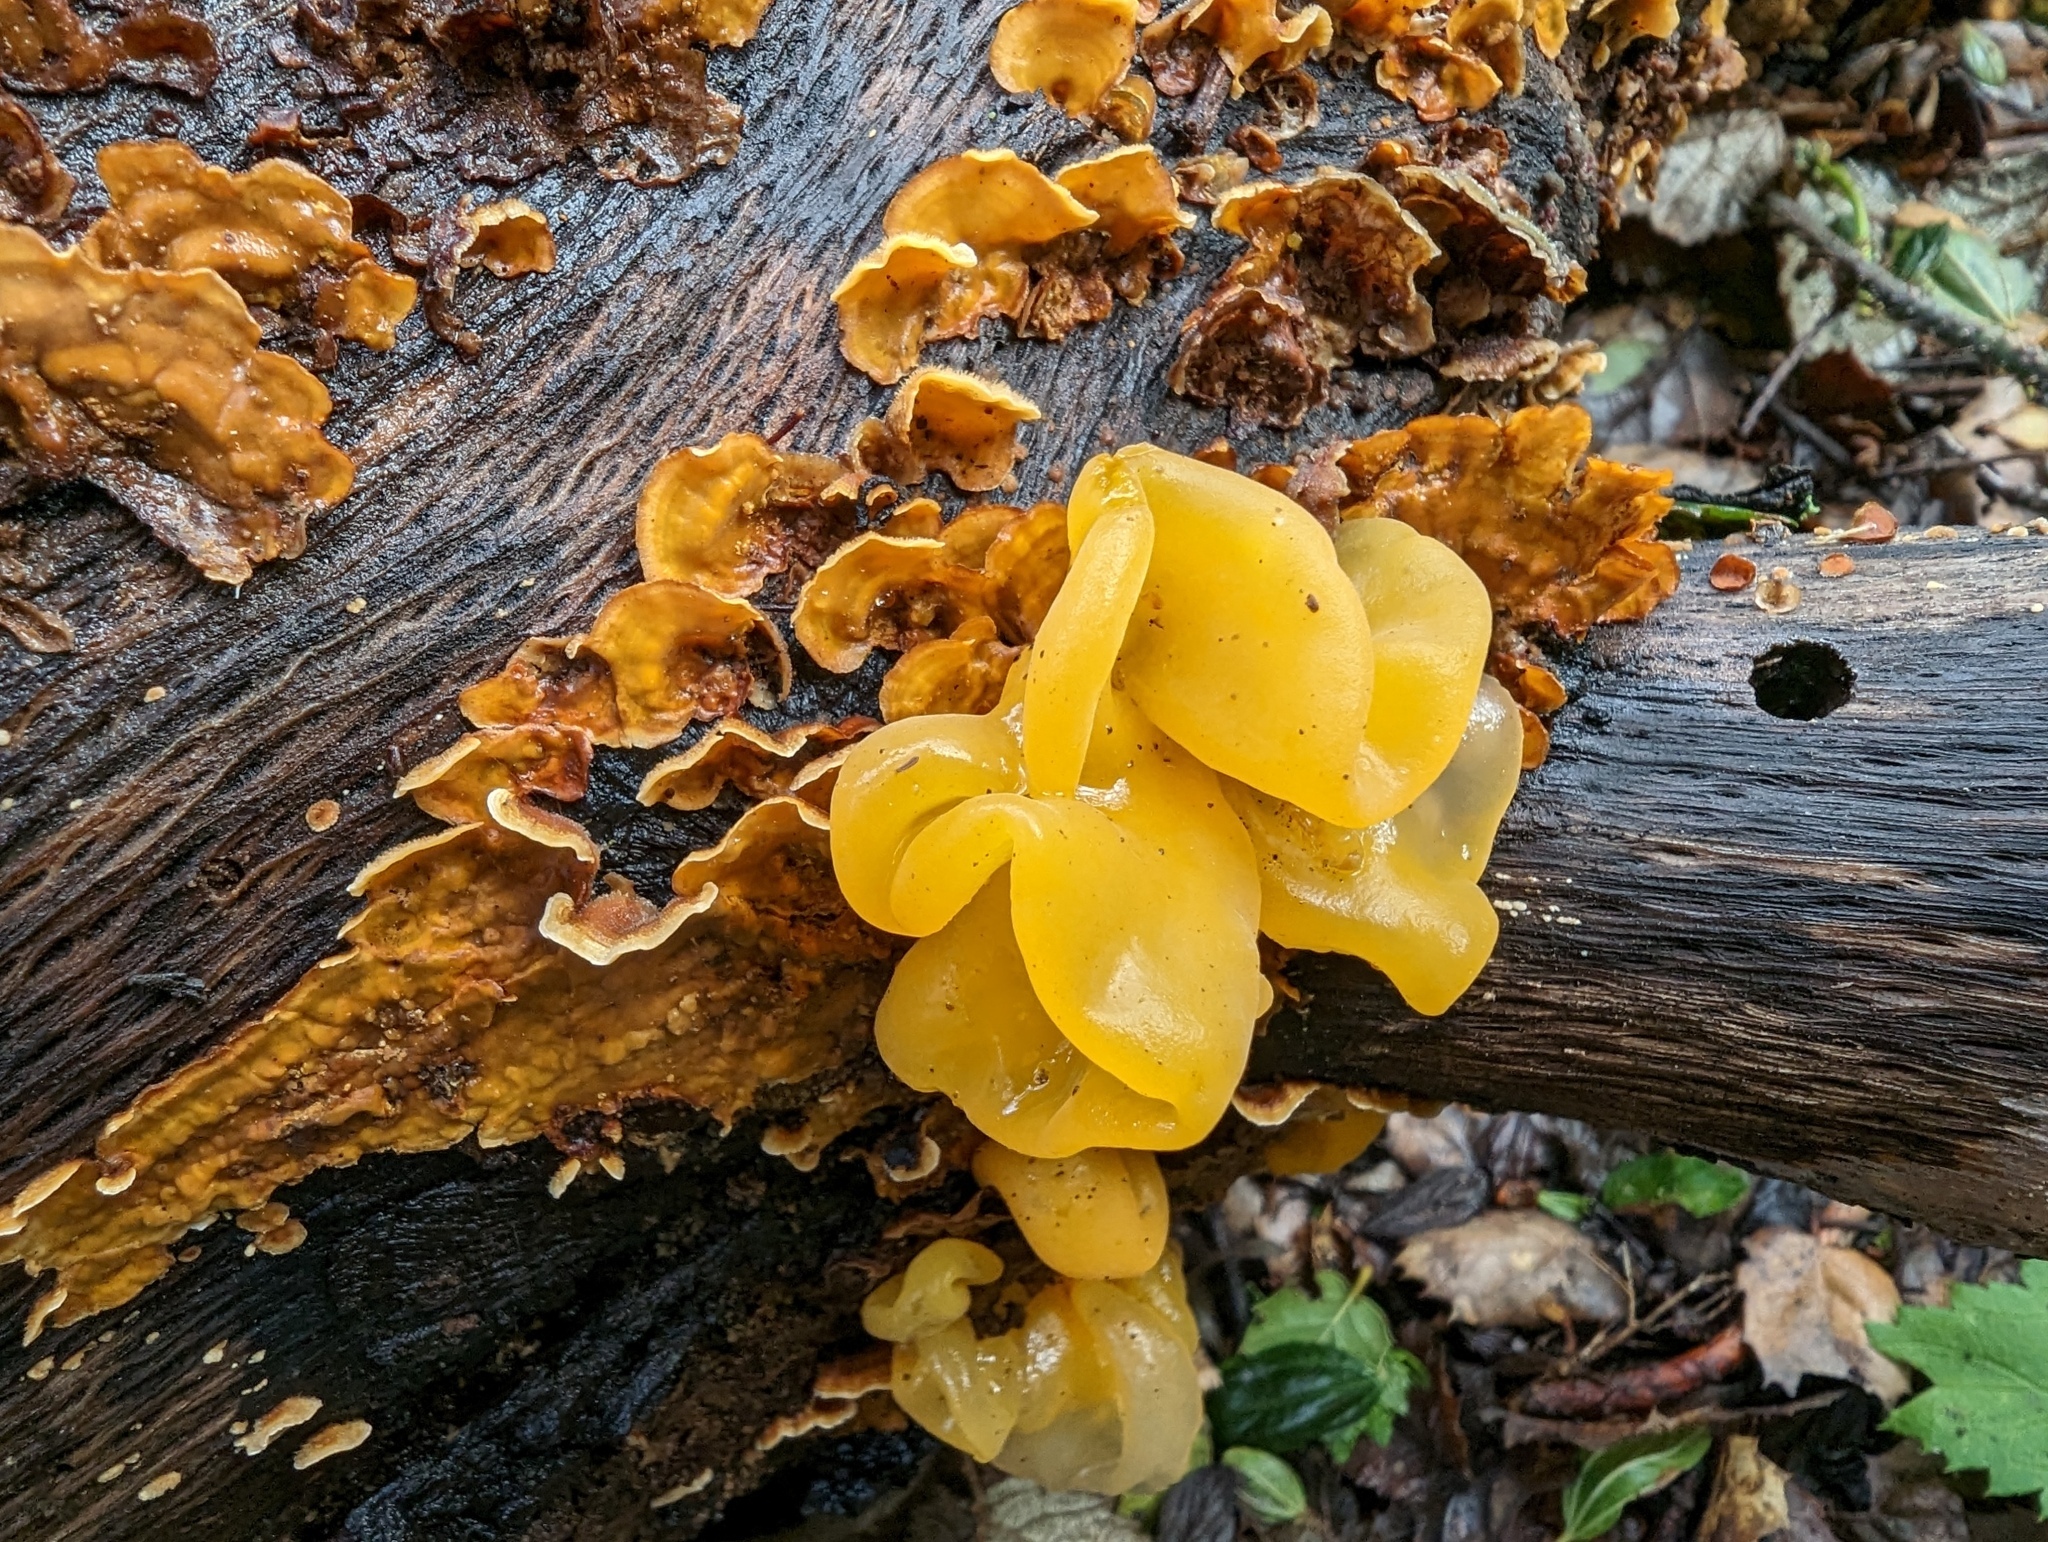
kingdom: Fungi
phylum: Basidiomycota
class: Tremellomycetes
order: Tremellales
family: Naemateliaceae
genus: Naematelia
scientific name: Naematelia aurantia
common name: Golden ear
